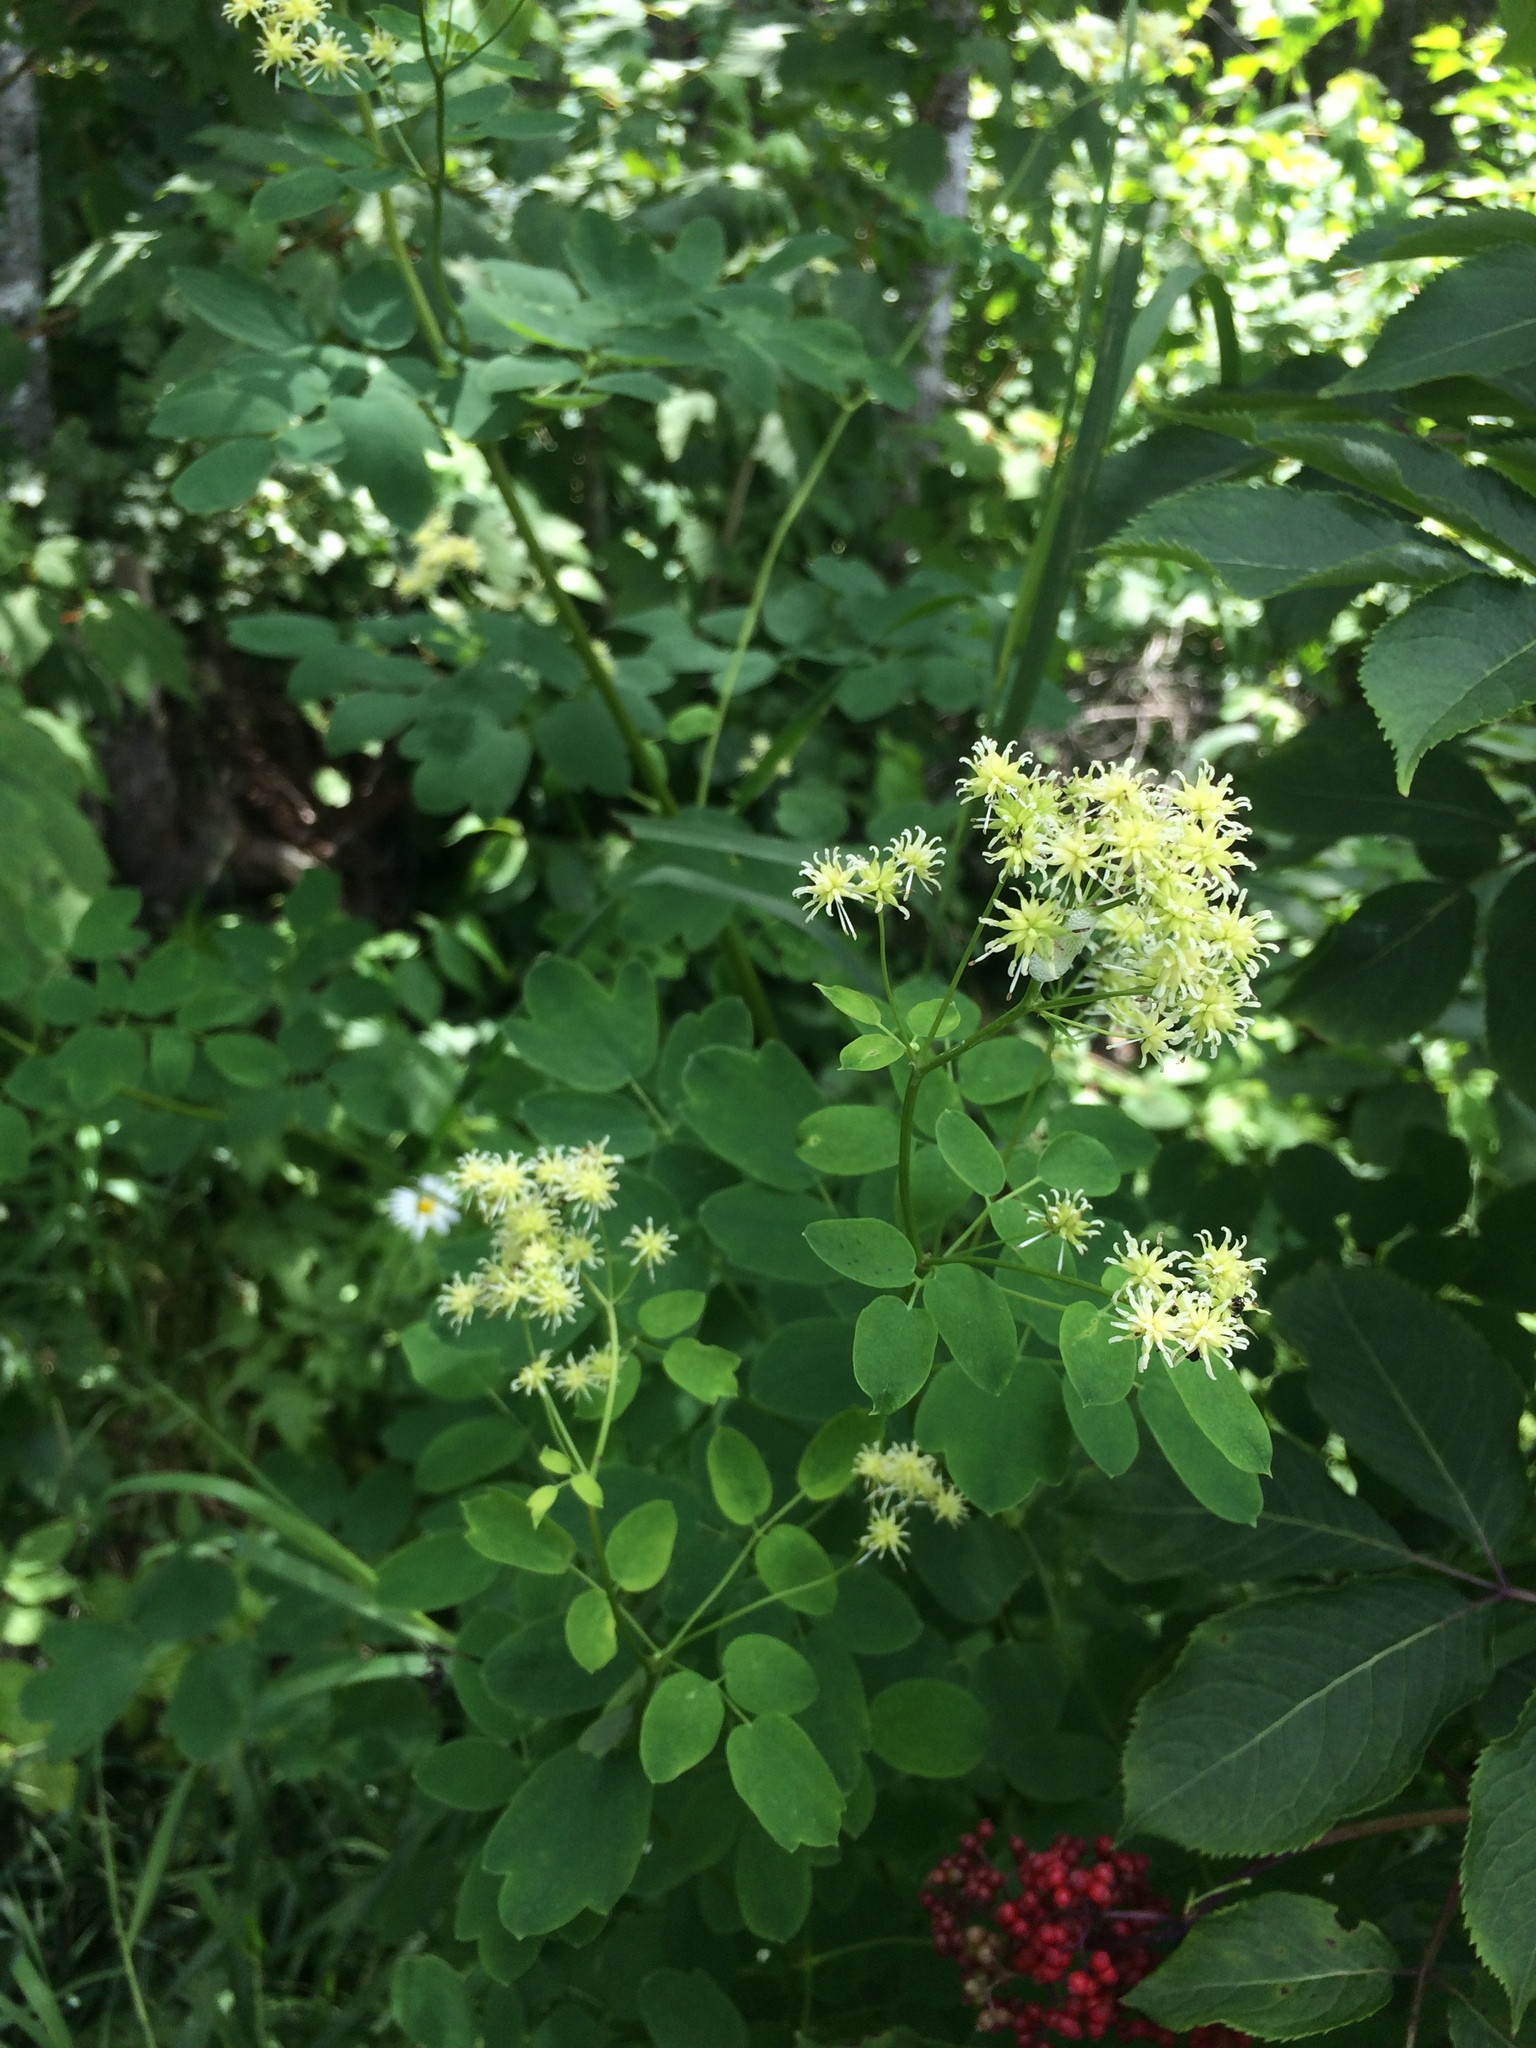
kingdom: Plantae
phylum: Tracheophyta
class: Magnoliopsida
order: Ranunculales
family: Ranunculaceae
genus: Thalictrum
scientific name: Thalictrum pubescens
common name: King-of-the-meadow
